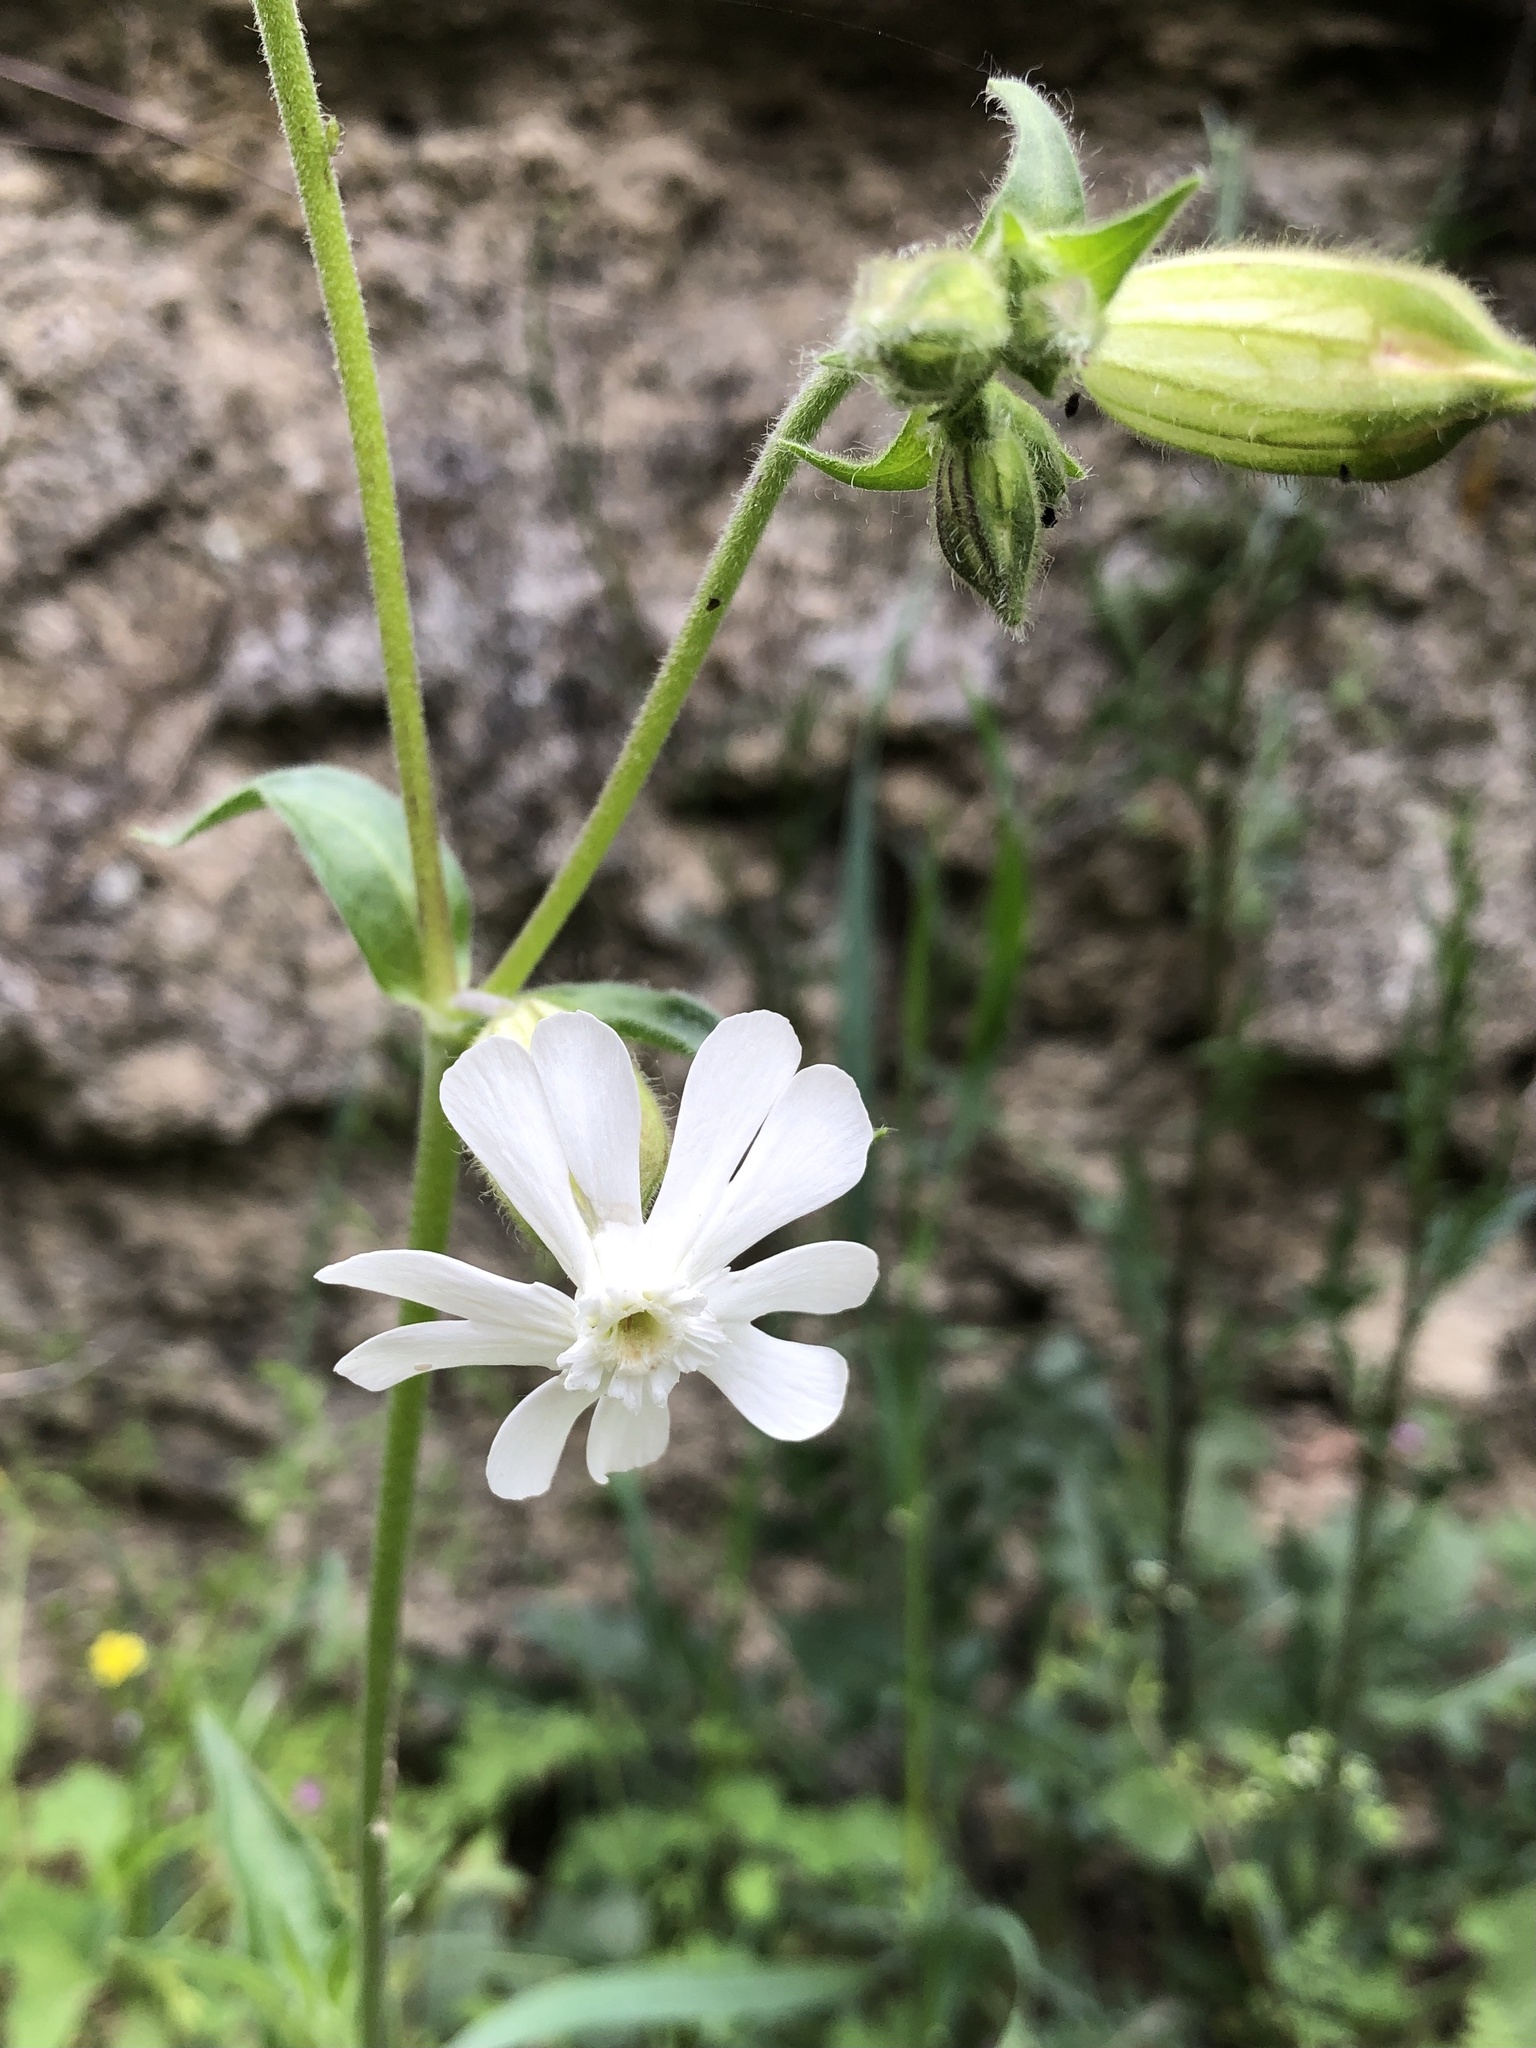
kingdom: Plantae
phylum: Tracheophyta
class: Magnoliopsida
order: Caryophyllales
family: Caryophyllaceae
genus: Silene
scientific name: Silene latifolia
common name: White campion
